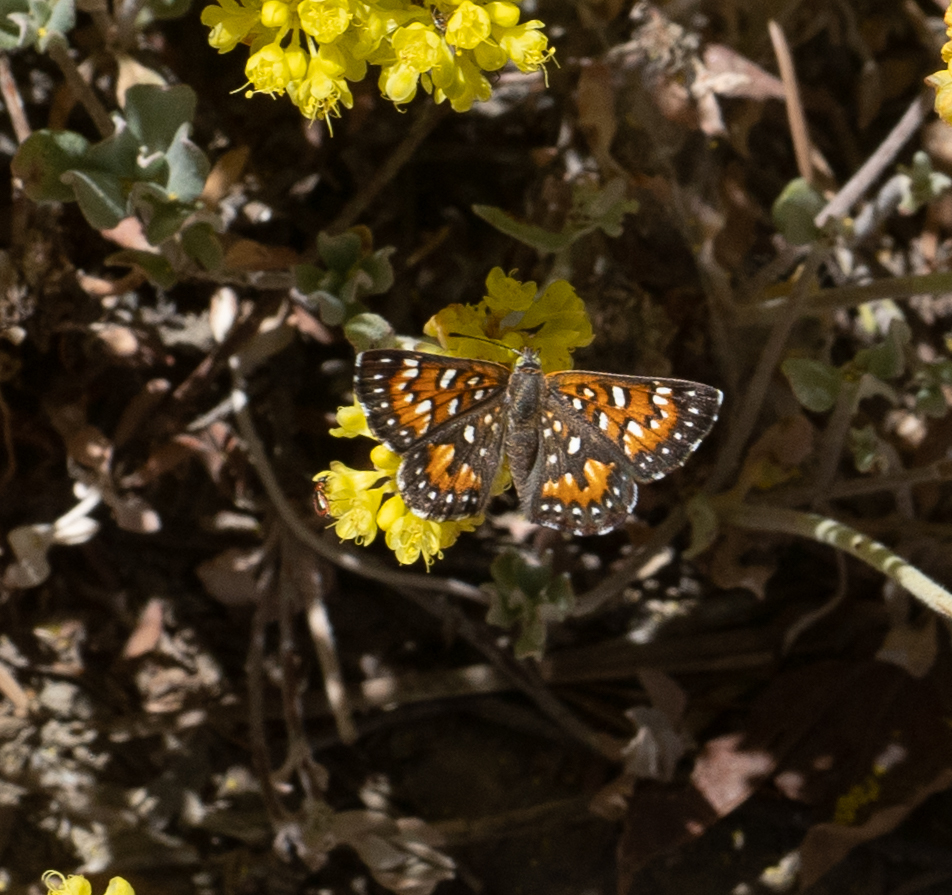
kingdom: Animalia
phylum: Arthropoda
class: Insecta
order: Lepidoptera
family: Riodinidae
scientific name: Riodinidae
